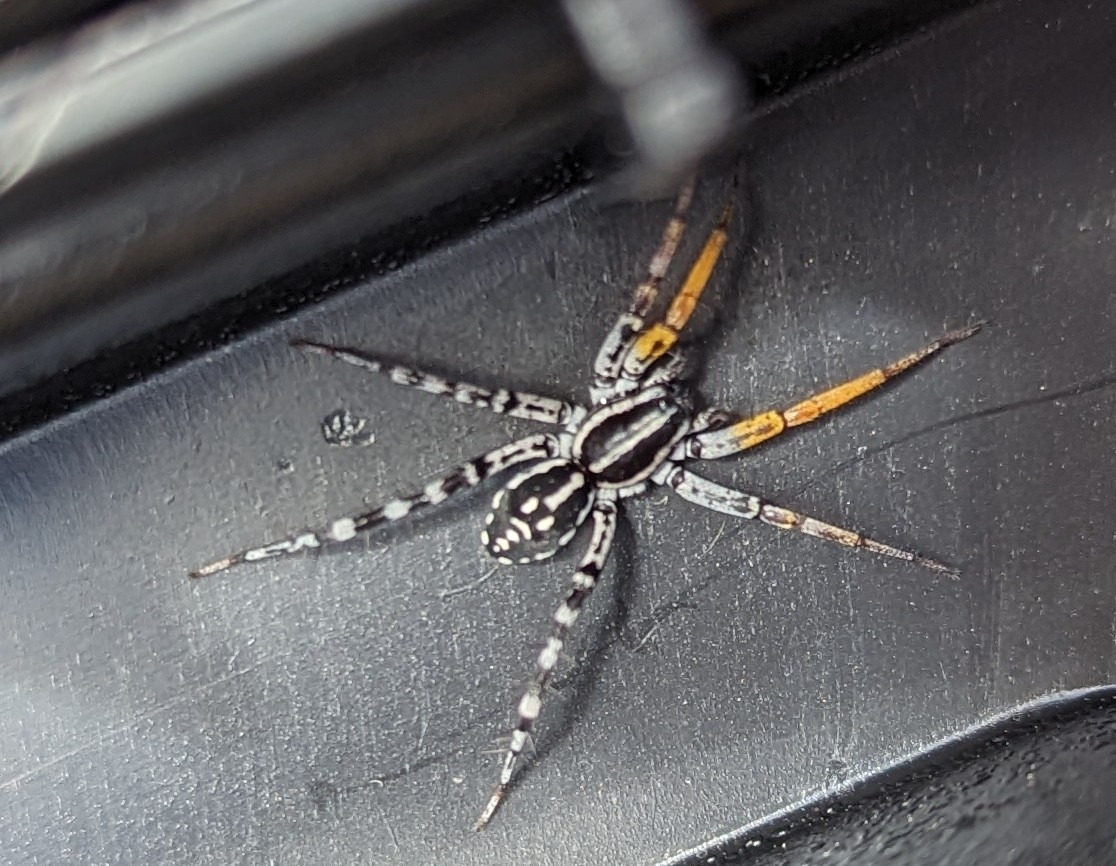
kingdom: Animalia
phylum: Arthropoda
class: Arachnida
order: Araneae
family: Corinnidae
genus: Nyssus
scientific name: Nyssus coloripes
